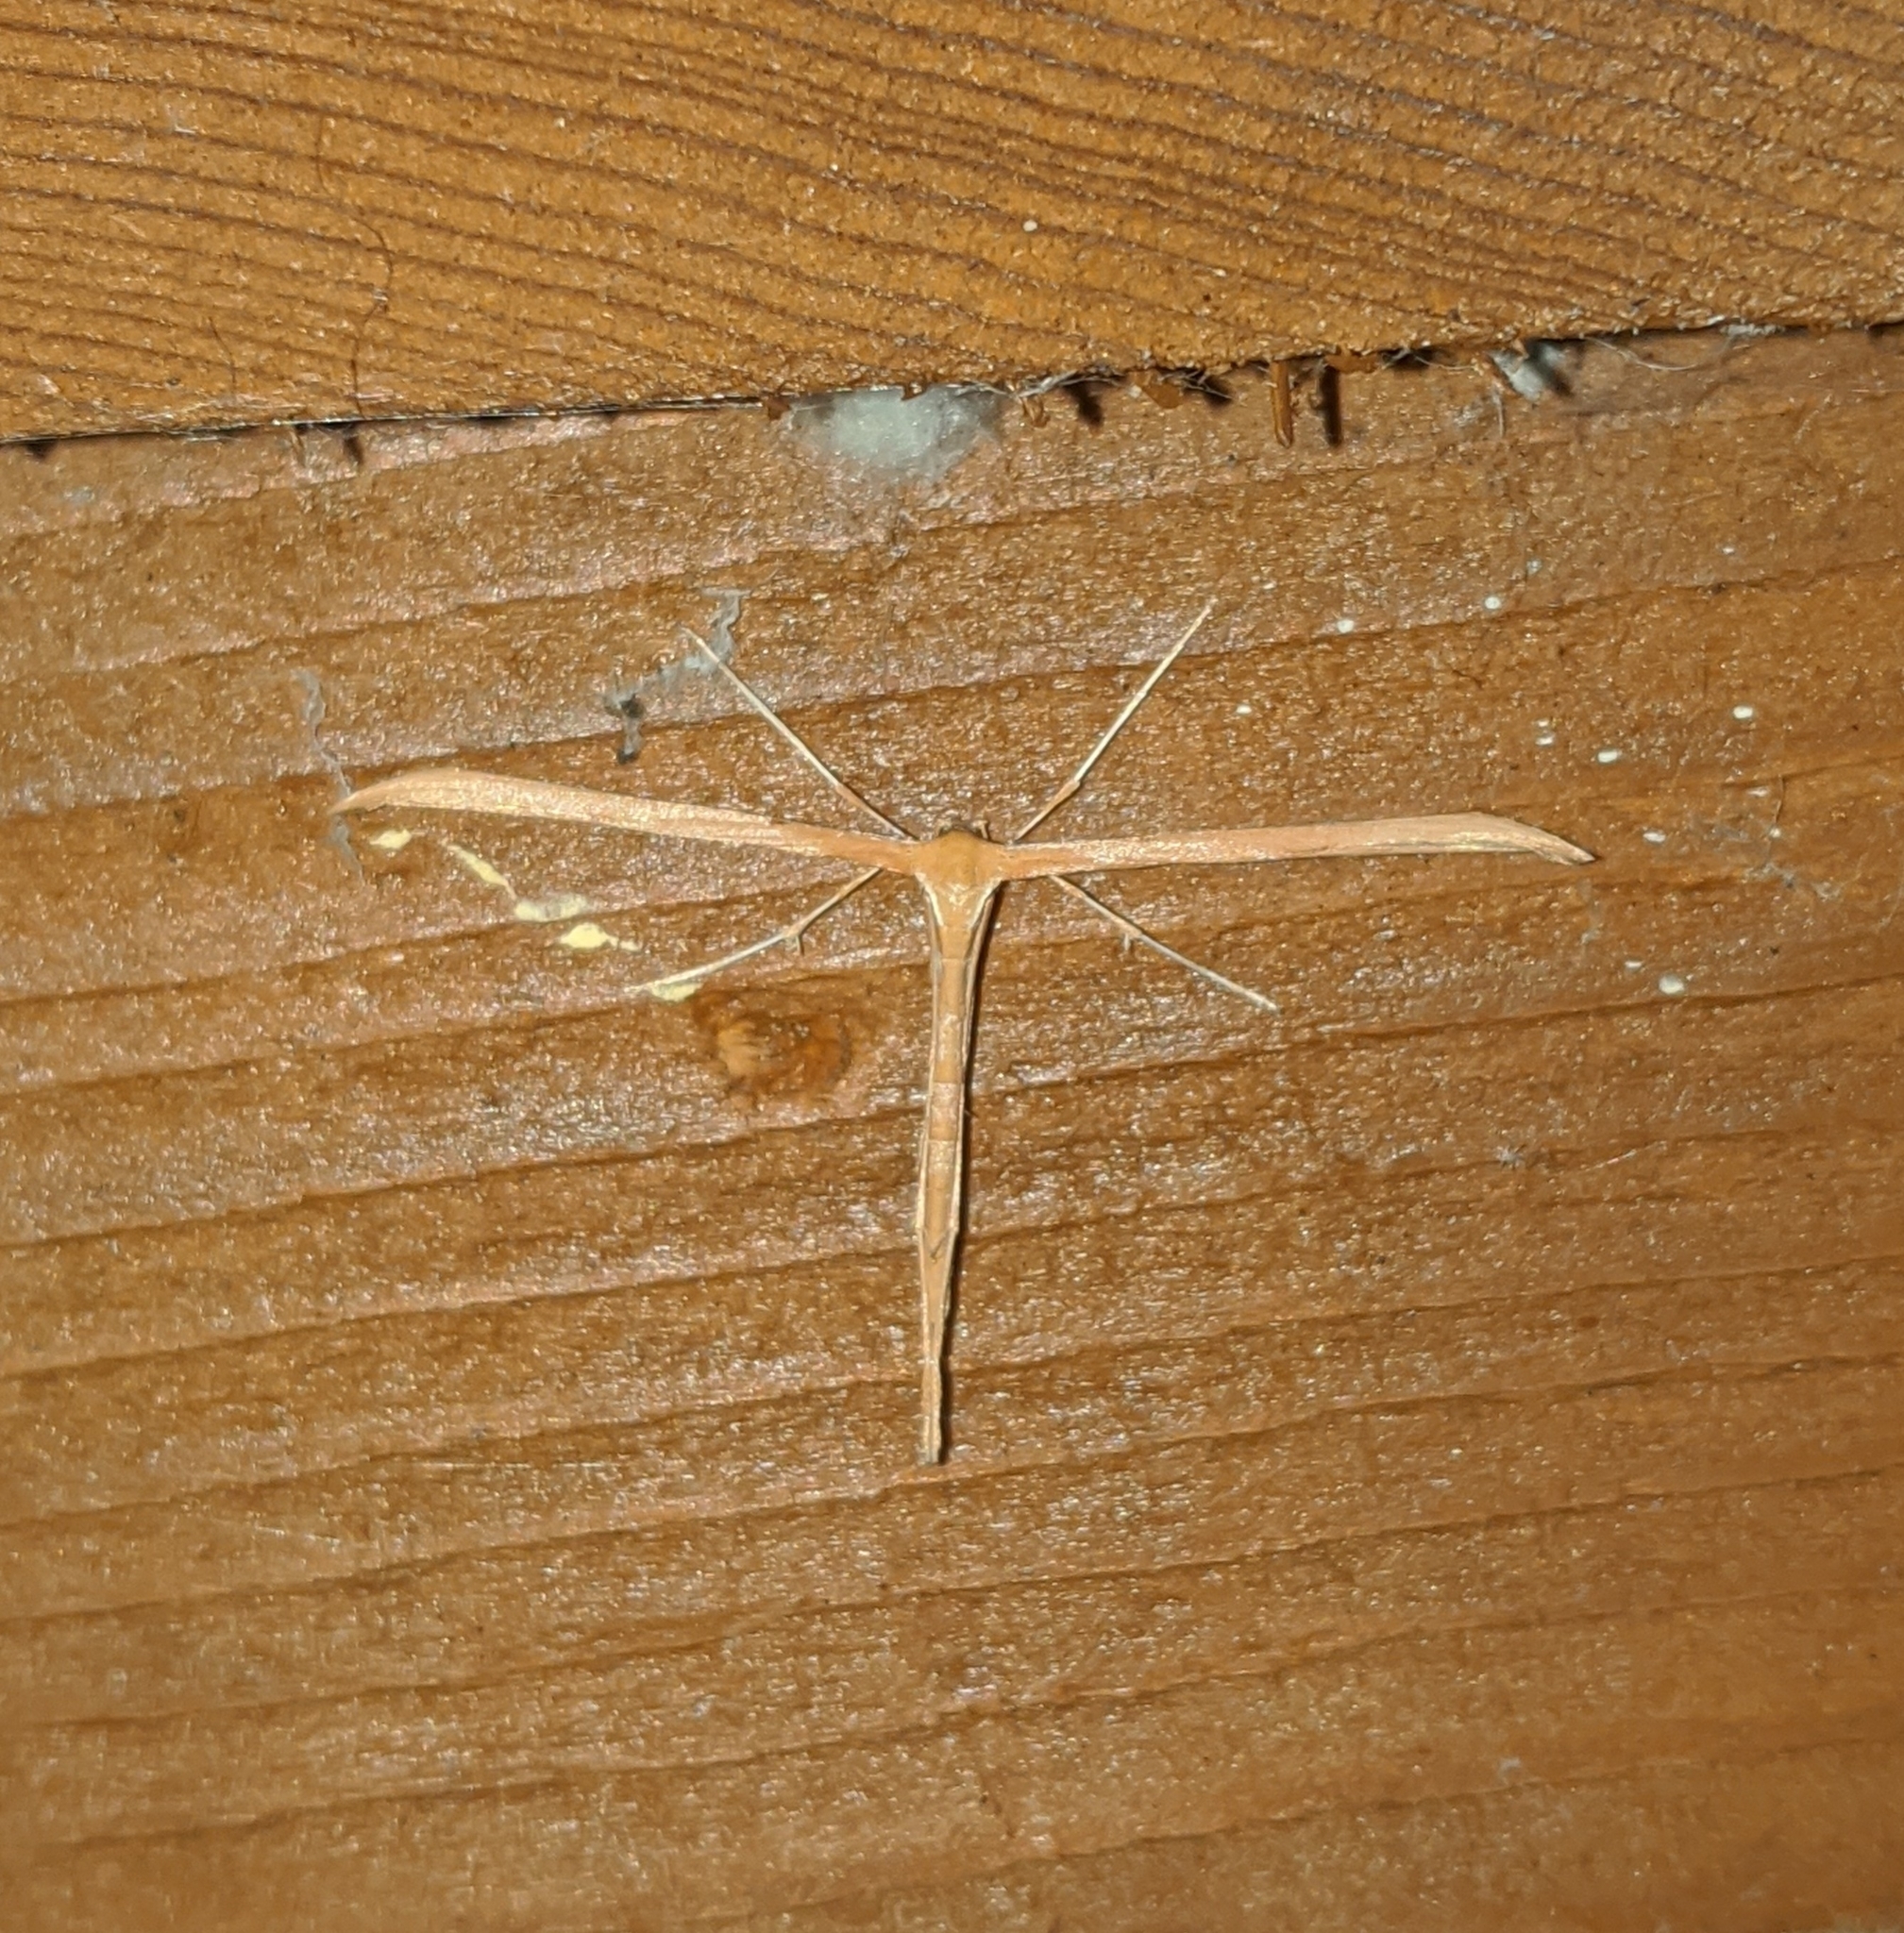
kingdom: Animalia
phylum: Arthropoda
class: Insecta
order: Lepidoptera
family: Pterophoridae
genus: Emmelina
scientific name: Emmelina monodactyla
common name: Common plume
